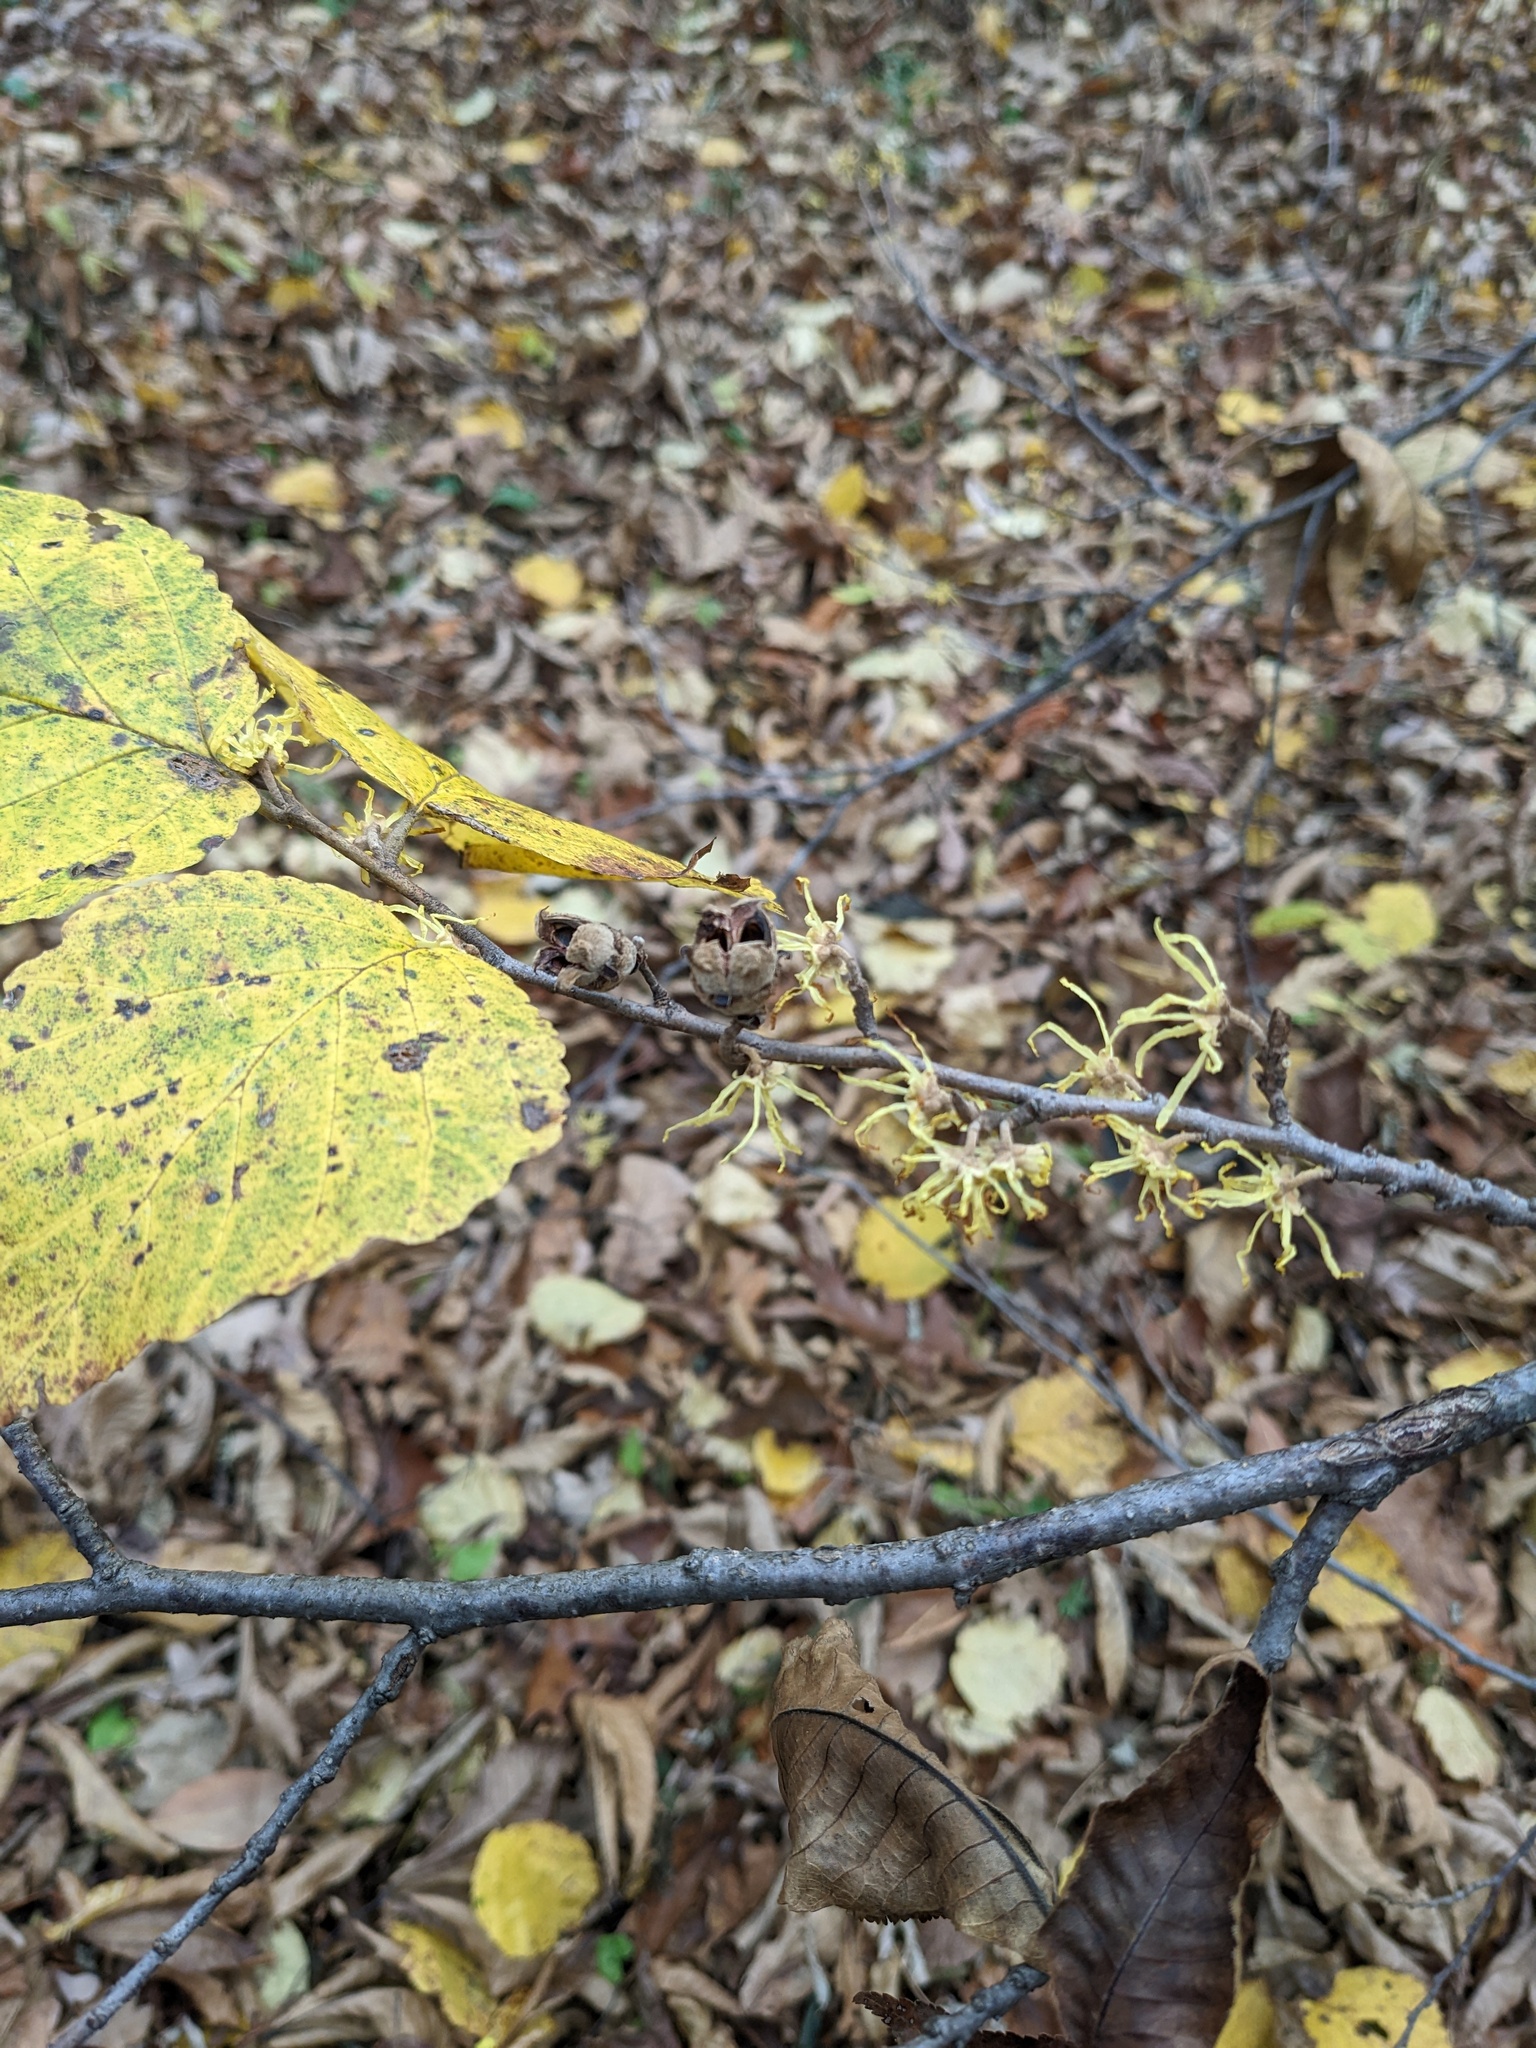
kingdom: Plantae
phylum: Tracheophyta
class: Magnoliopsida
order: Saxifragales
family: Hamamelidaceae
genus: Hamamelis
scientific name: Hamamelis virginiana
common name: Witch-hazel
